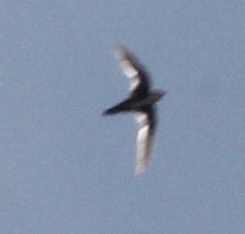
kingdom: Animalia
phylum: Chordata
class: Aves
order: Apodiformes
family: Apodidae
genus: Aeronautes
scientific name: Aeronautes saxatalis
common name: White-throated swift
